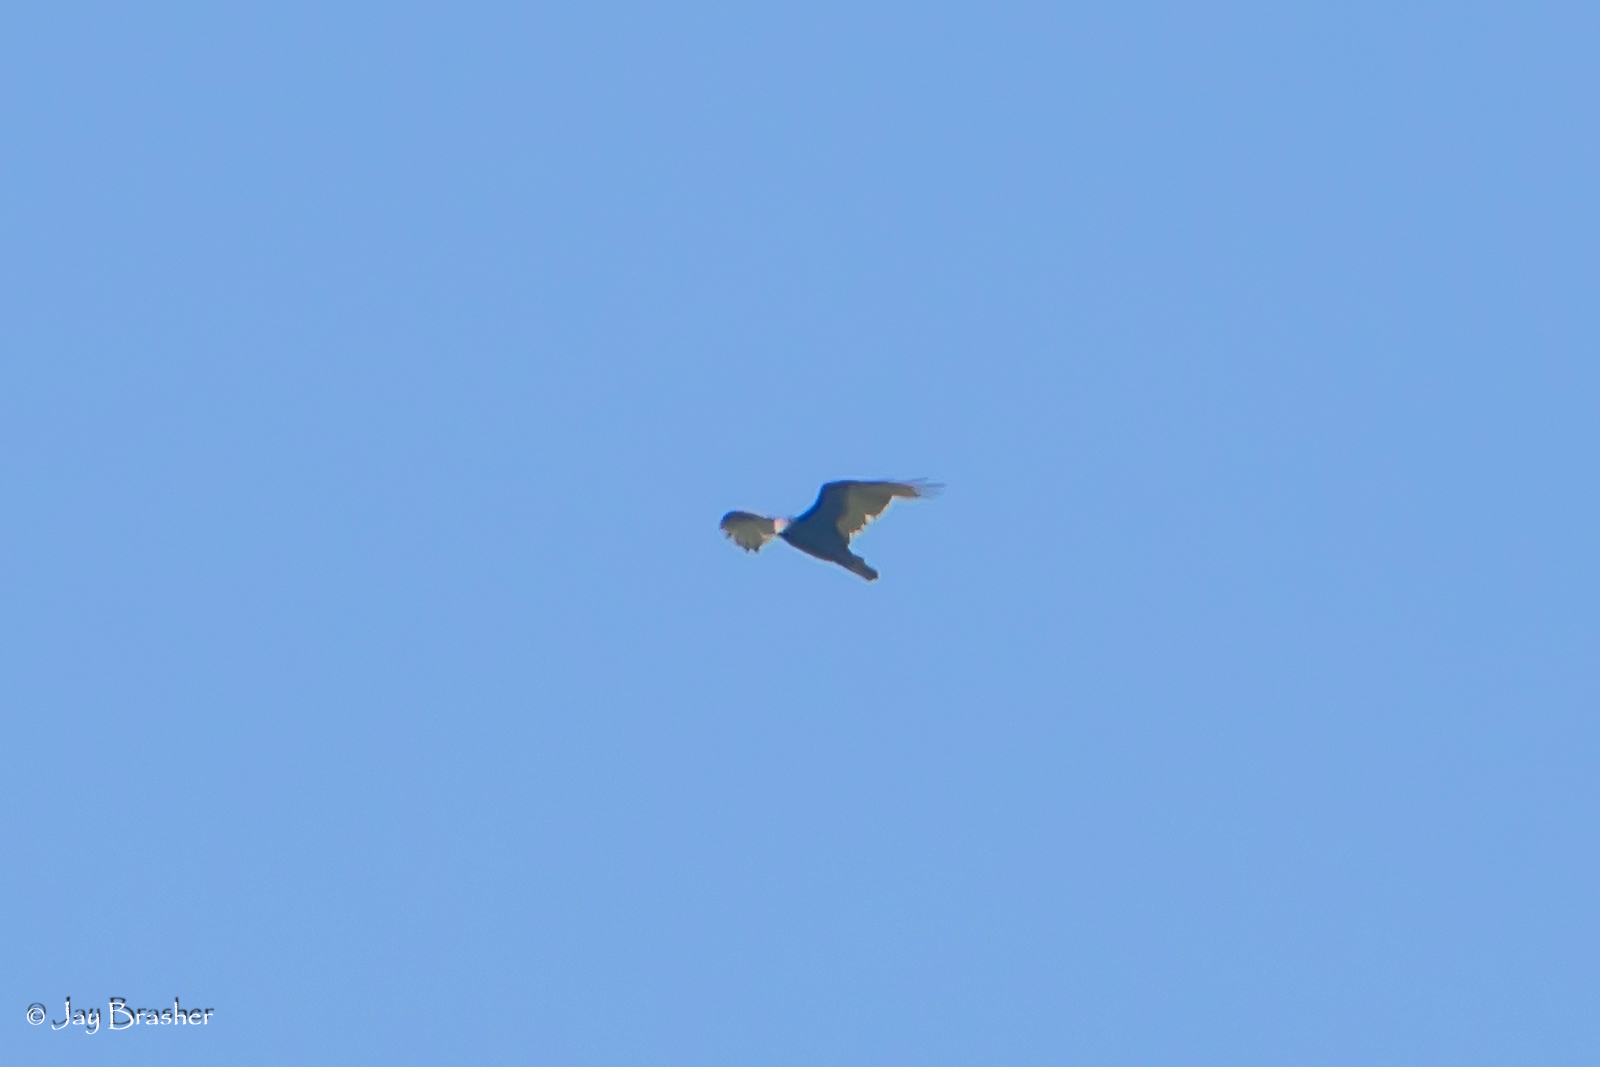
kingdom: Animalia
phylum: Chordata
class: Aves
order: Accipitriformes
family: Cathartidae
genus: Cathartes
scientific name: Cathartes aura
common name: Turkey vulture
